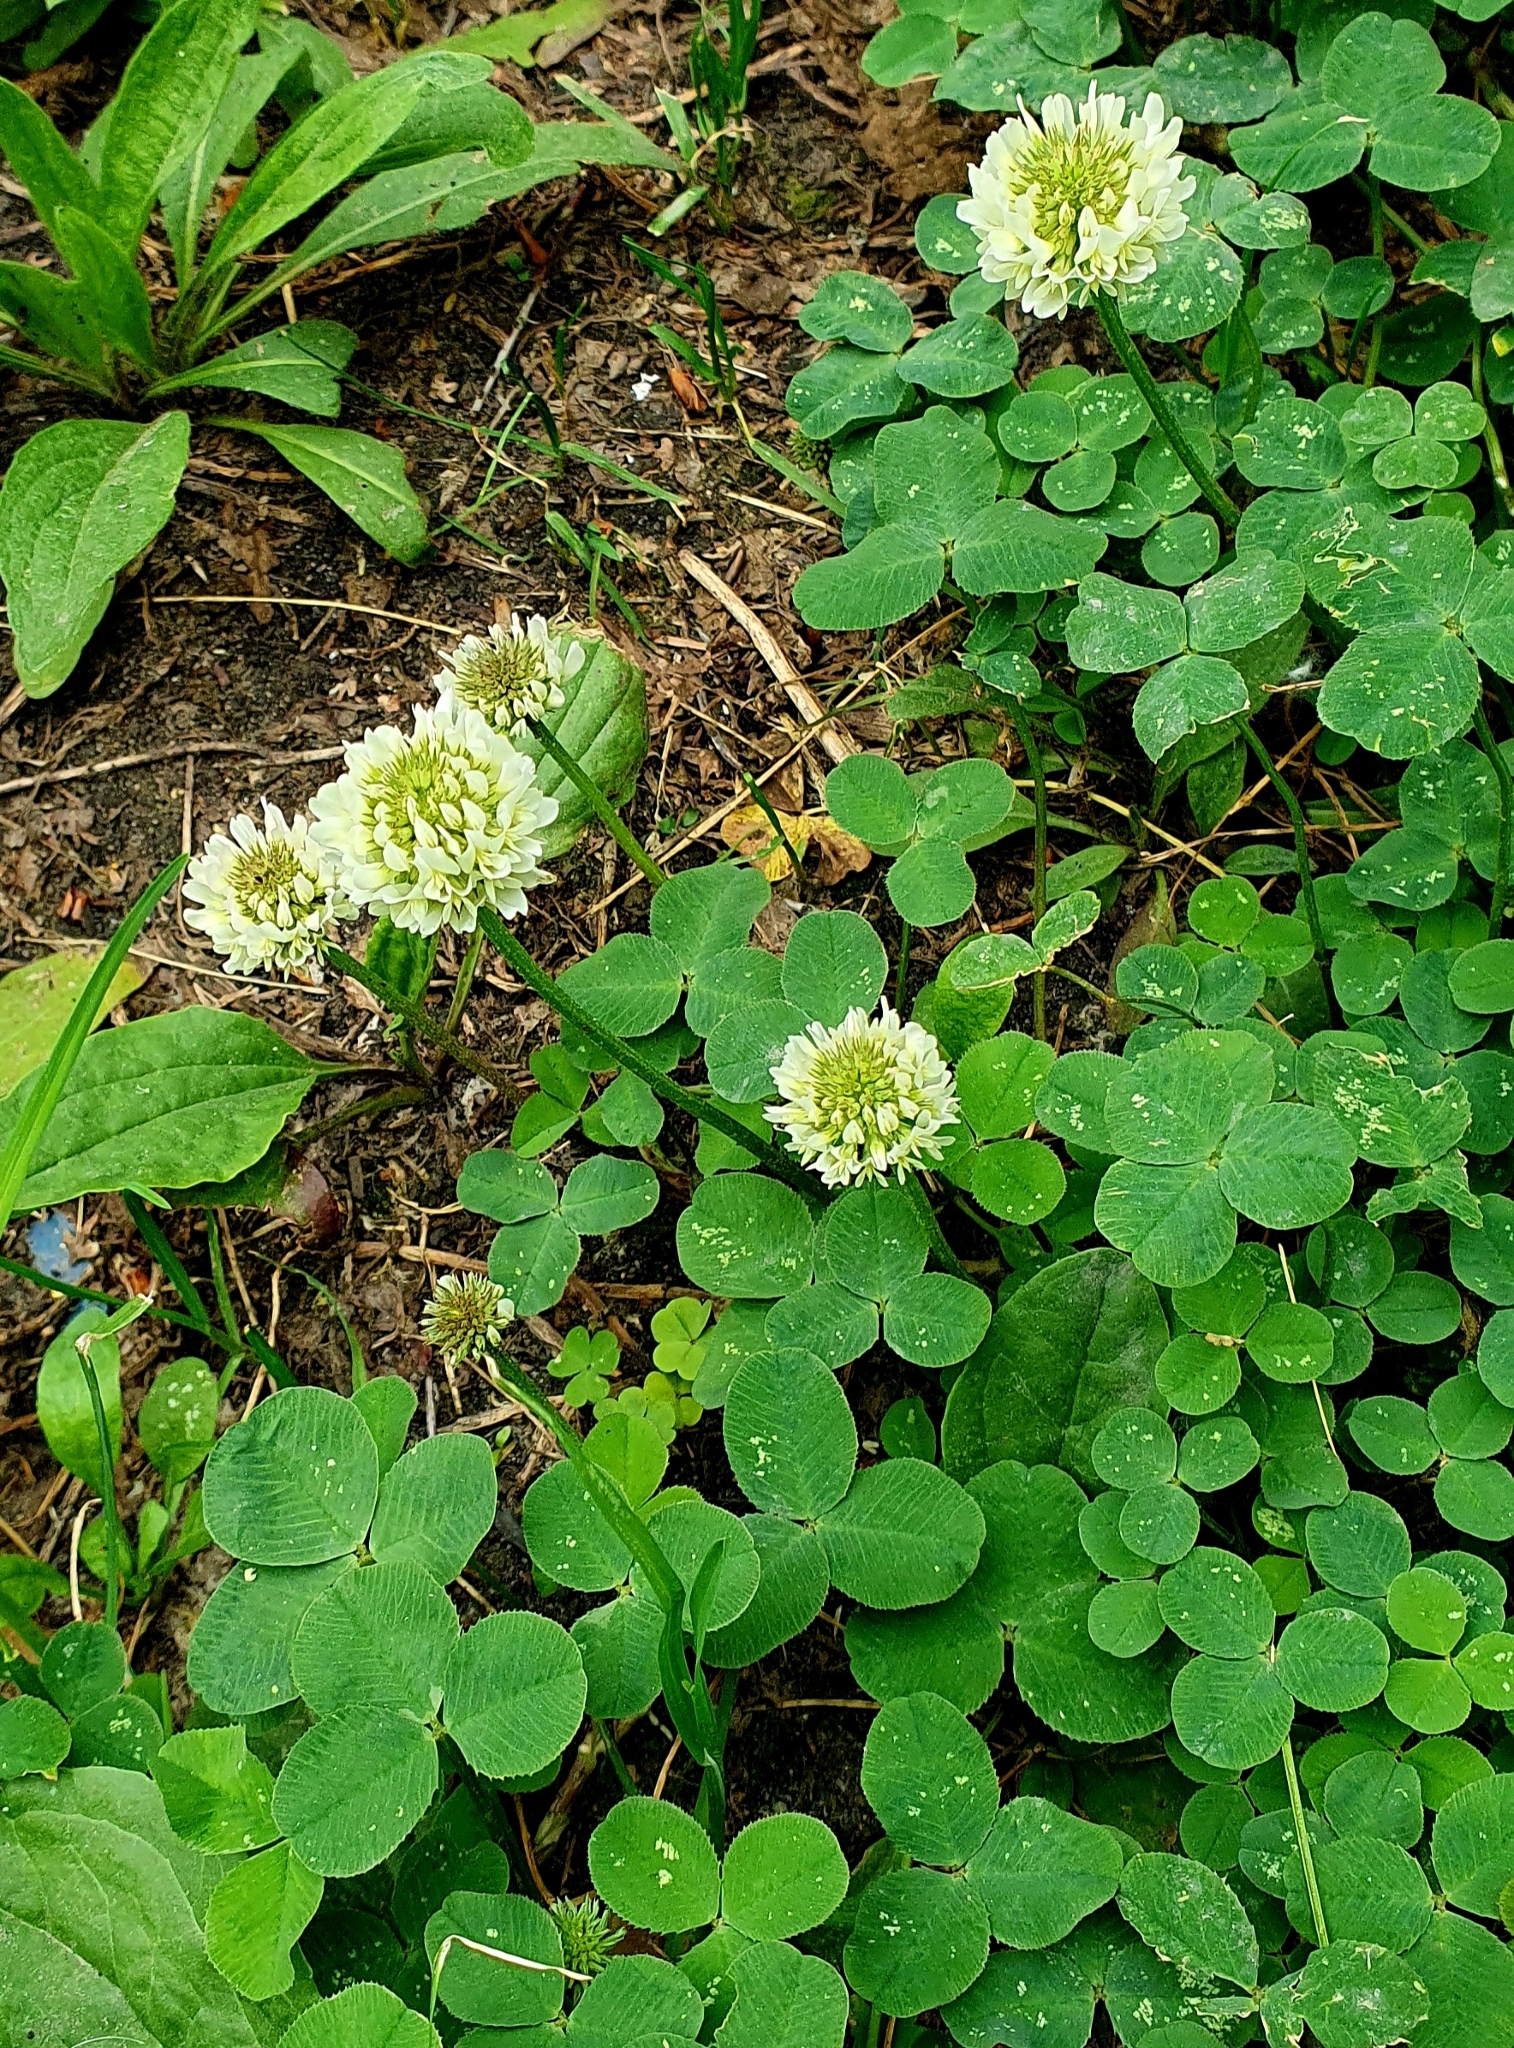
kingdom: Plantae
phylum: Tracheophyta
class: Magnoliopsida
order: Fabales
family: Fabaceae
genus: Trifolium
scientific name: Trifolium repens
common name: White clover
